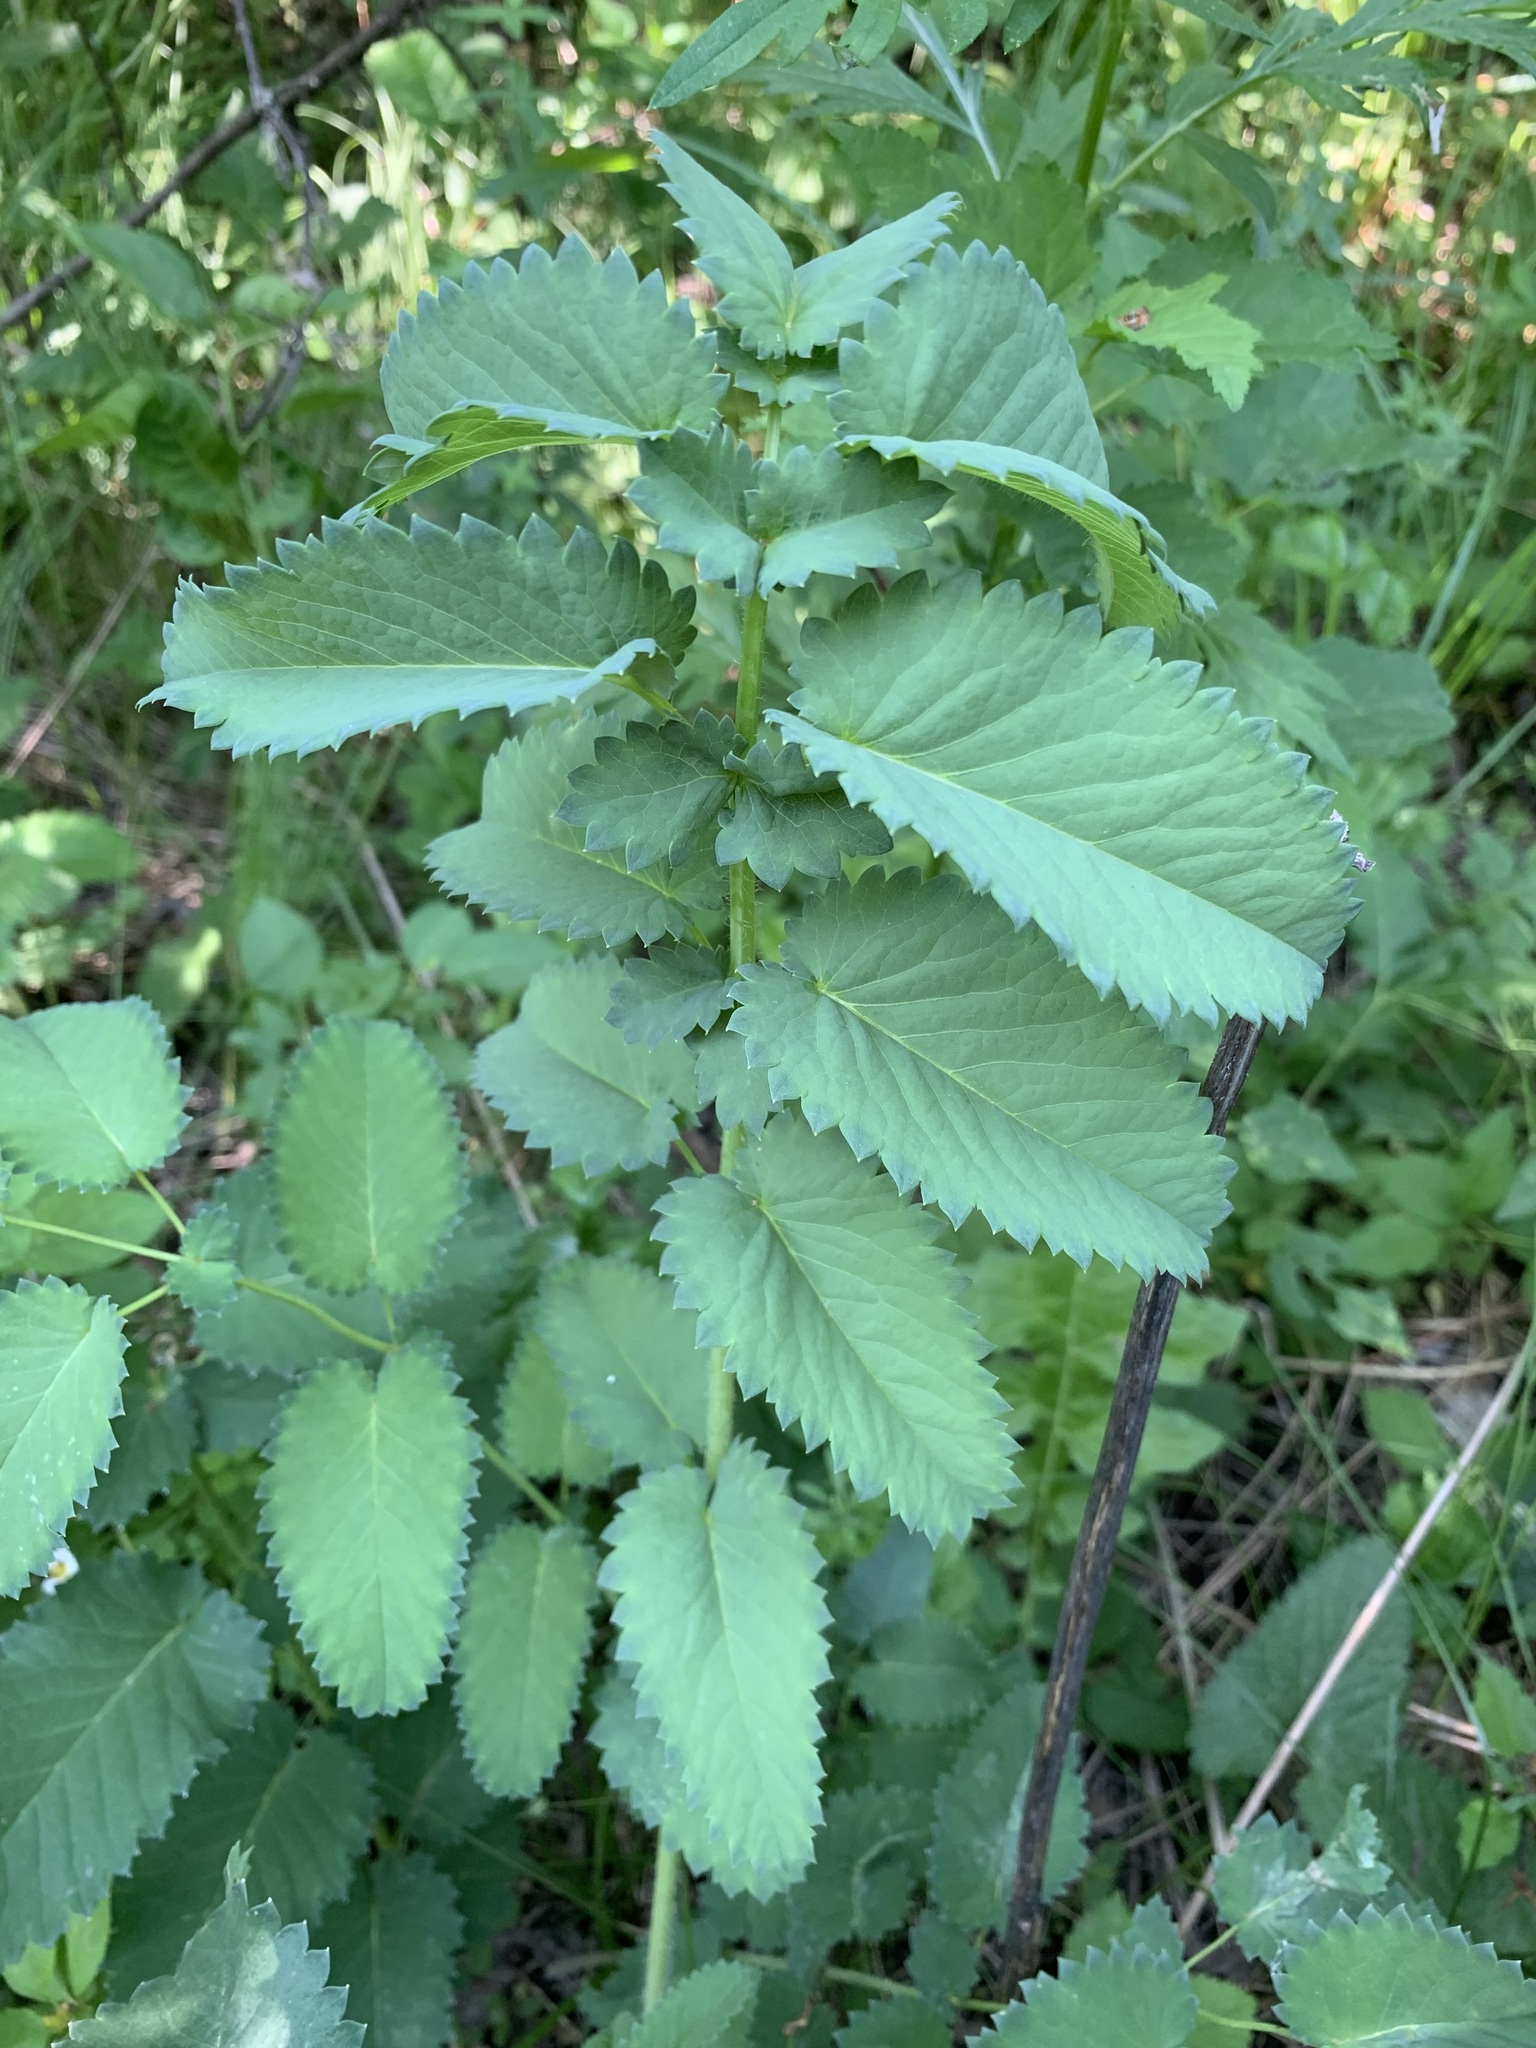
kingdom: Plantae
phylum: Tracheophyta
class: Magnoliopsida
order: Rosales
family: Rosaceae
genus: Sanguisorba
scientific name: Sanguisorba officinalis
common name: Great burnet
